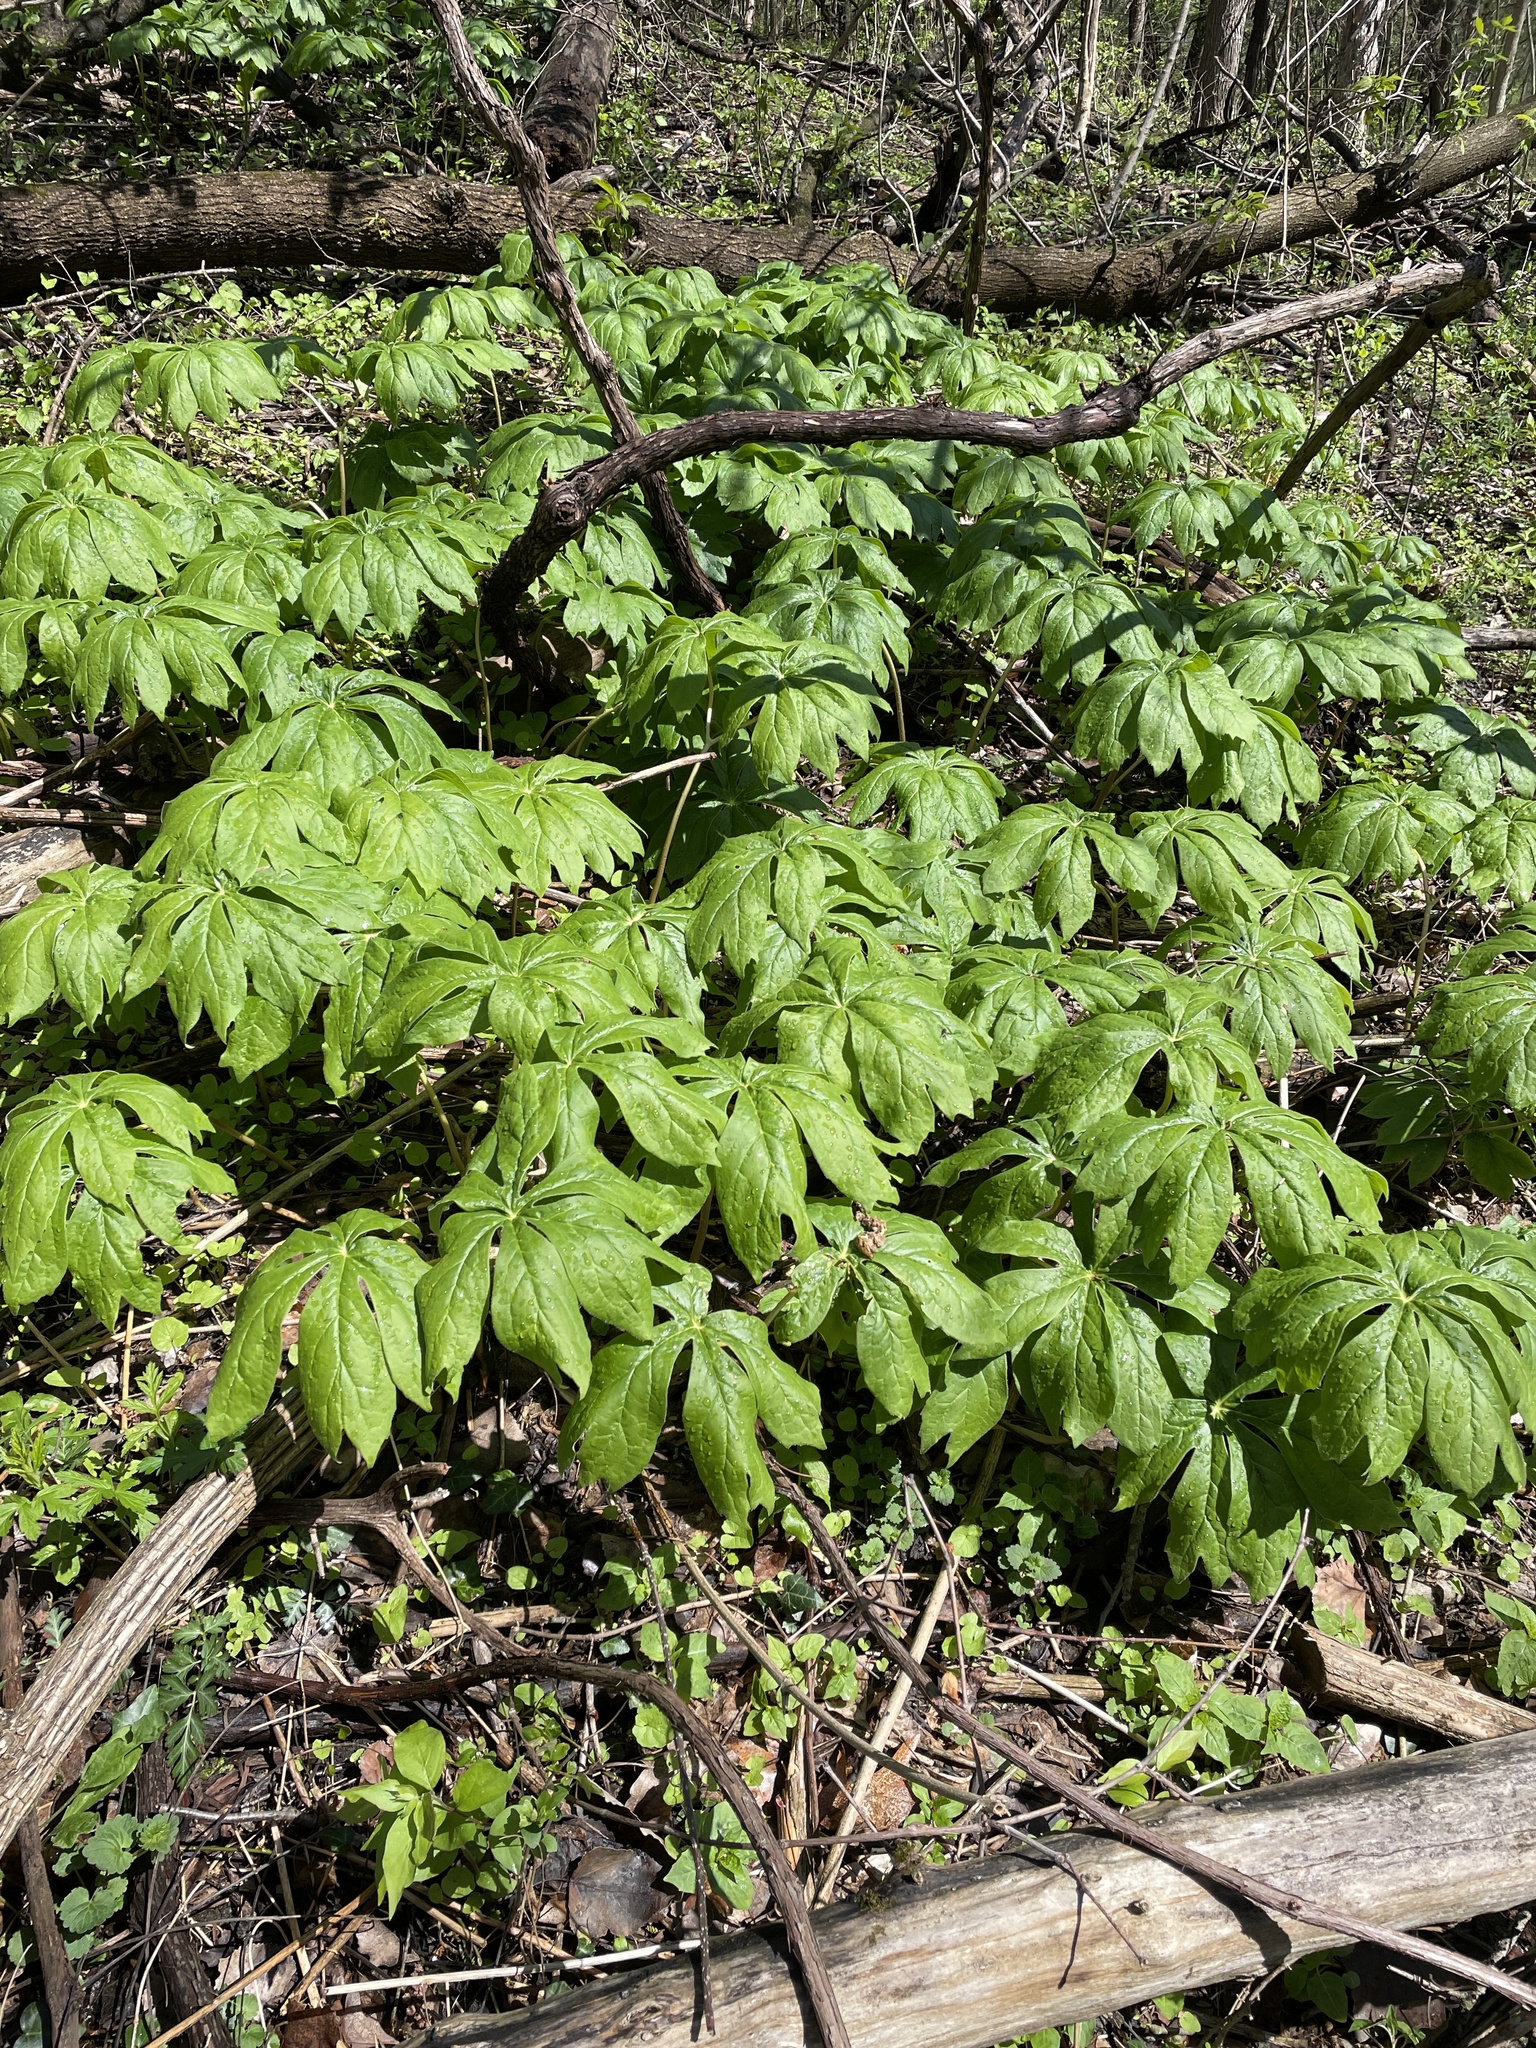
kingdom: Plantae
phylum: Tracheophyta
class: Magnoliopsida
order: Ranunculales
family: Berberidaceae
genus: Podophyllum
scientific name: Podophyllum peltatum
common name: Wild mandrake
